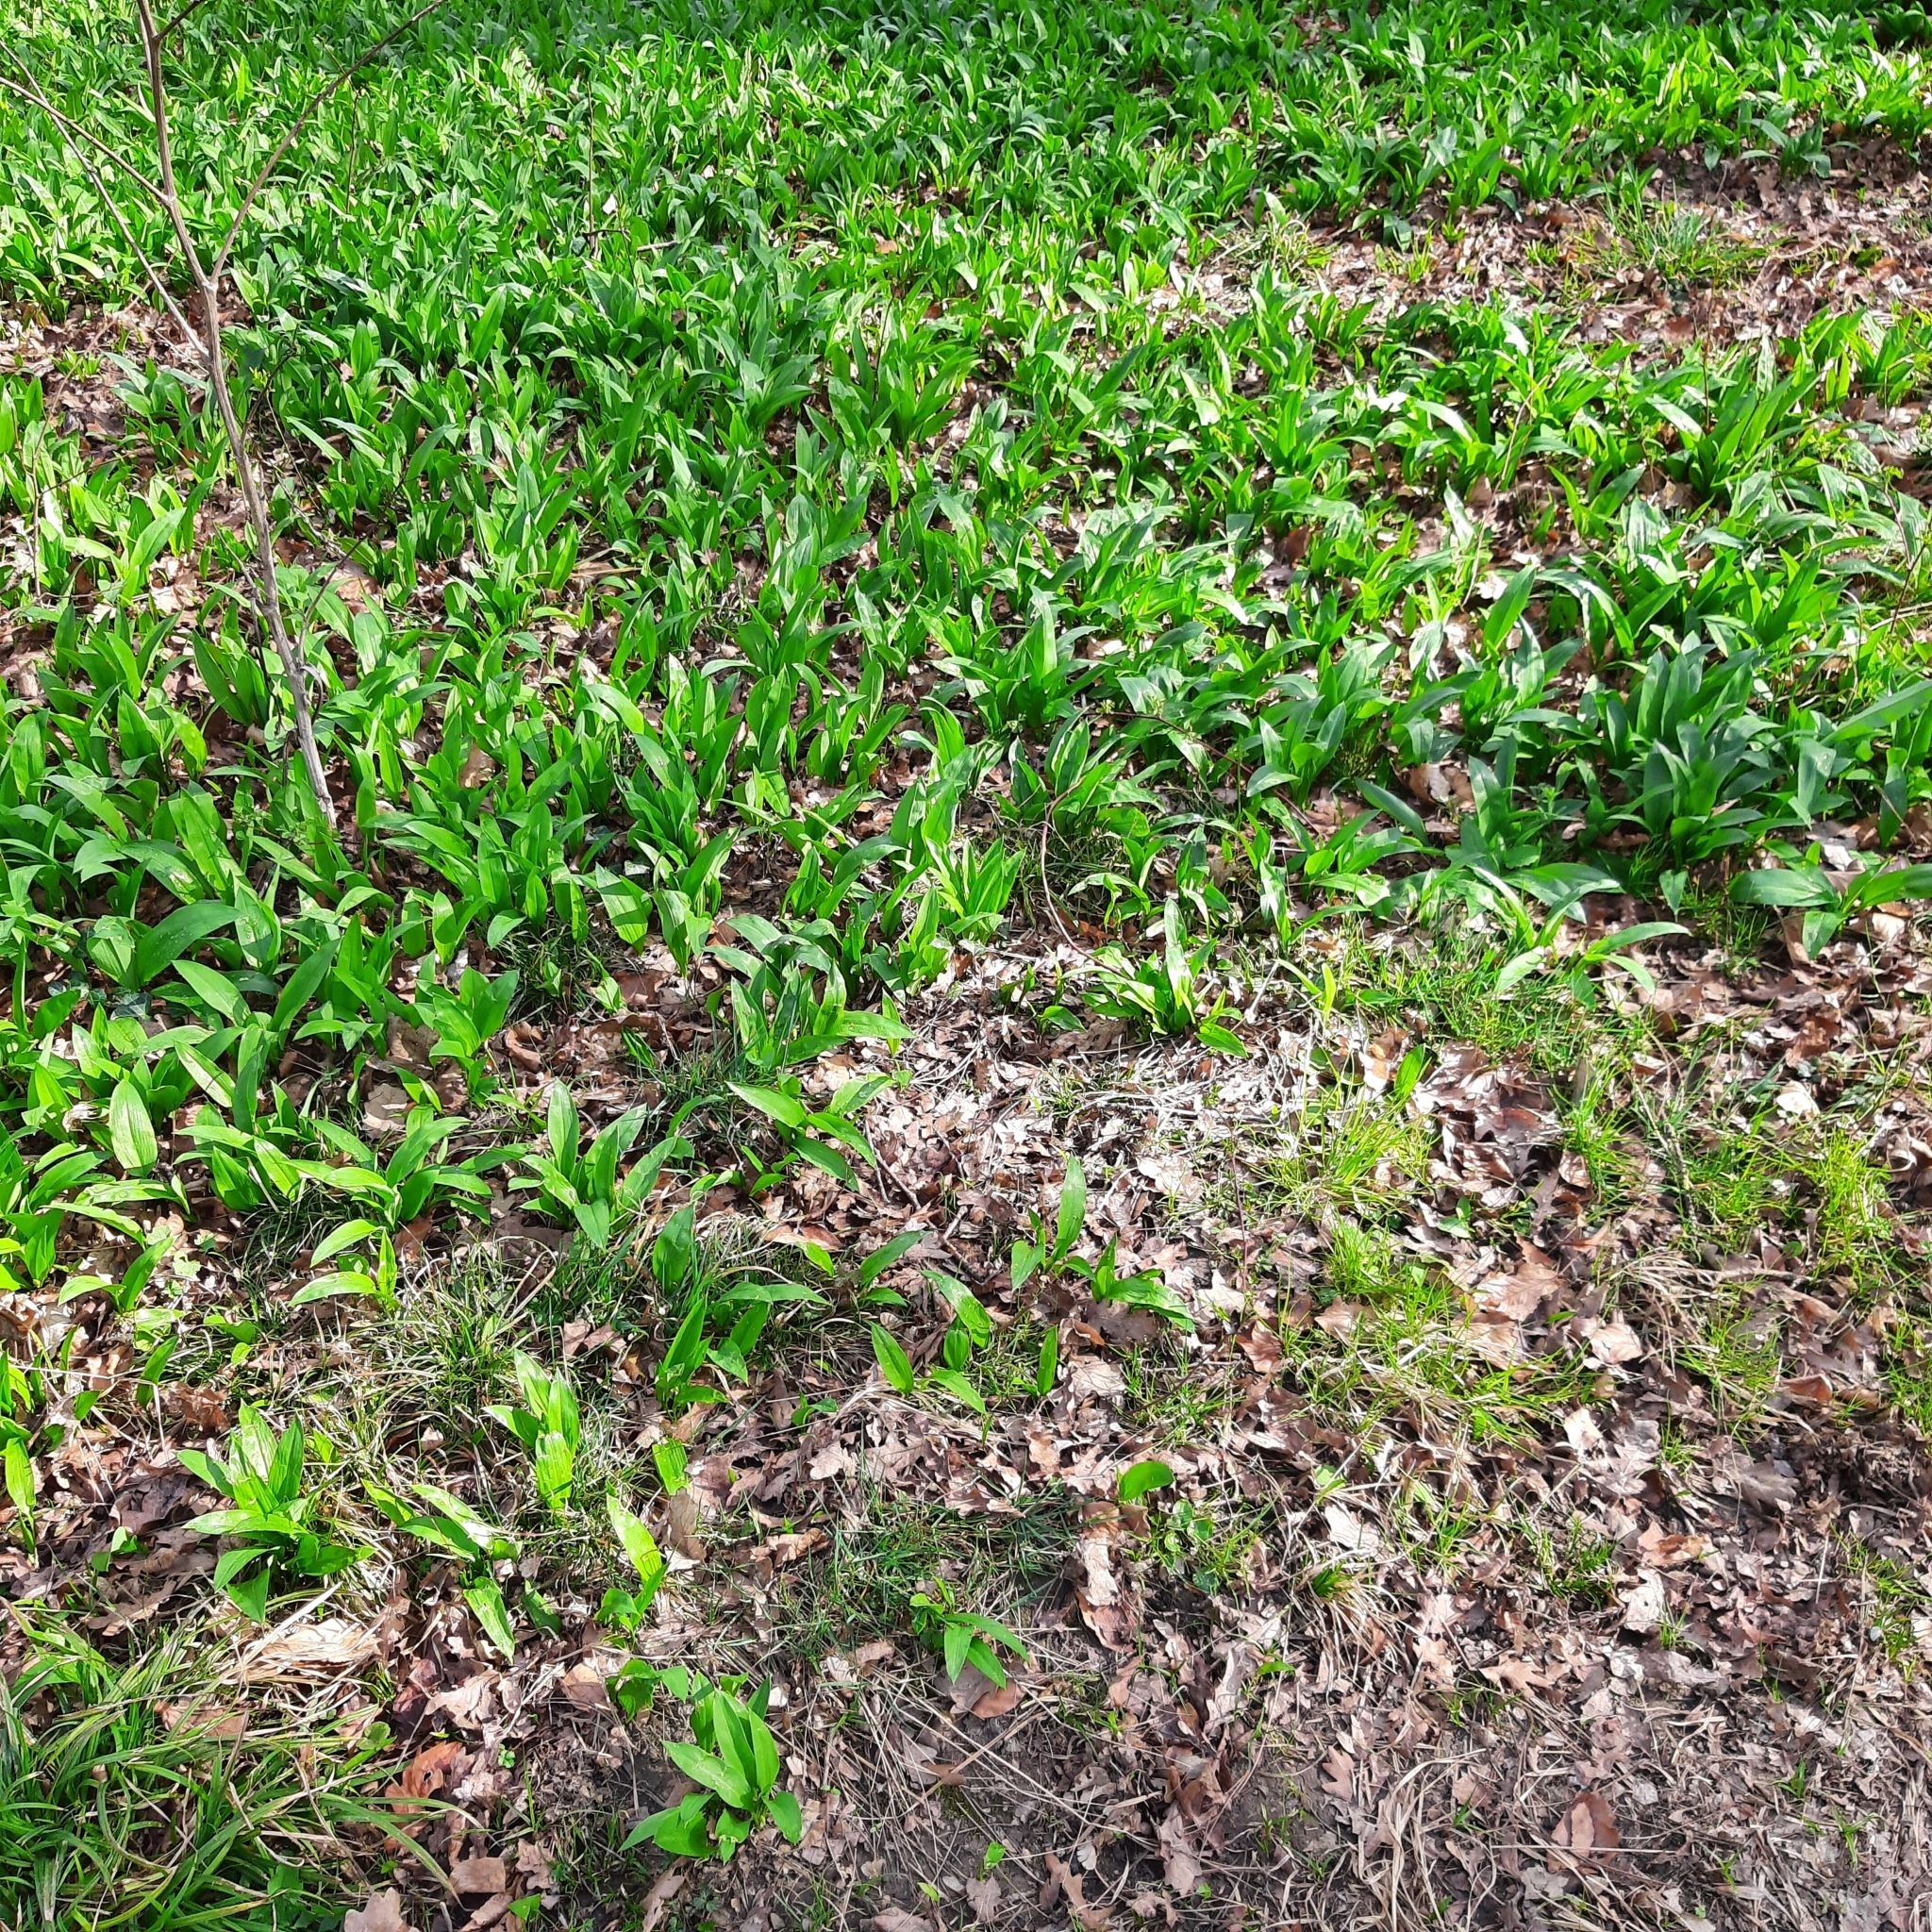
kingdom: Plantae
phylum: Tracheophyta
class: Liliopsida
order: Asparagales
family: Amaryllidaceae
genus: Allium
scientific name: Allium ursinum
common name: Ramsons
